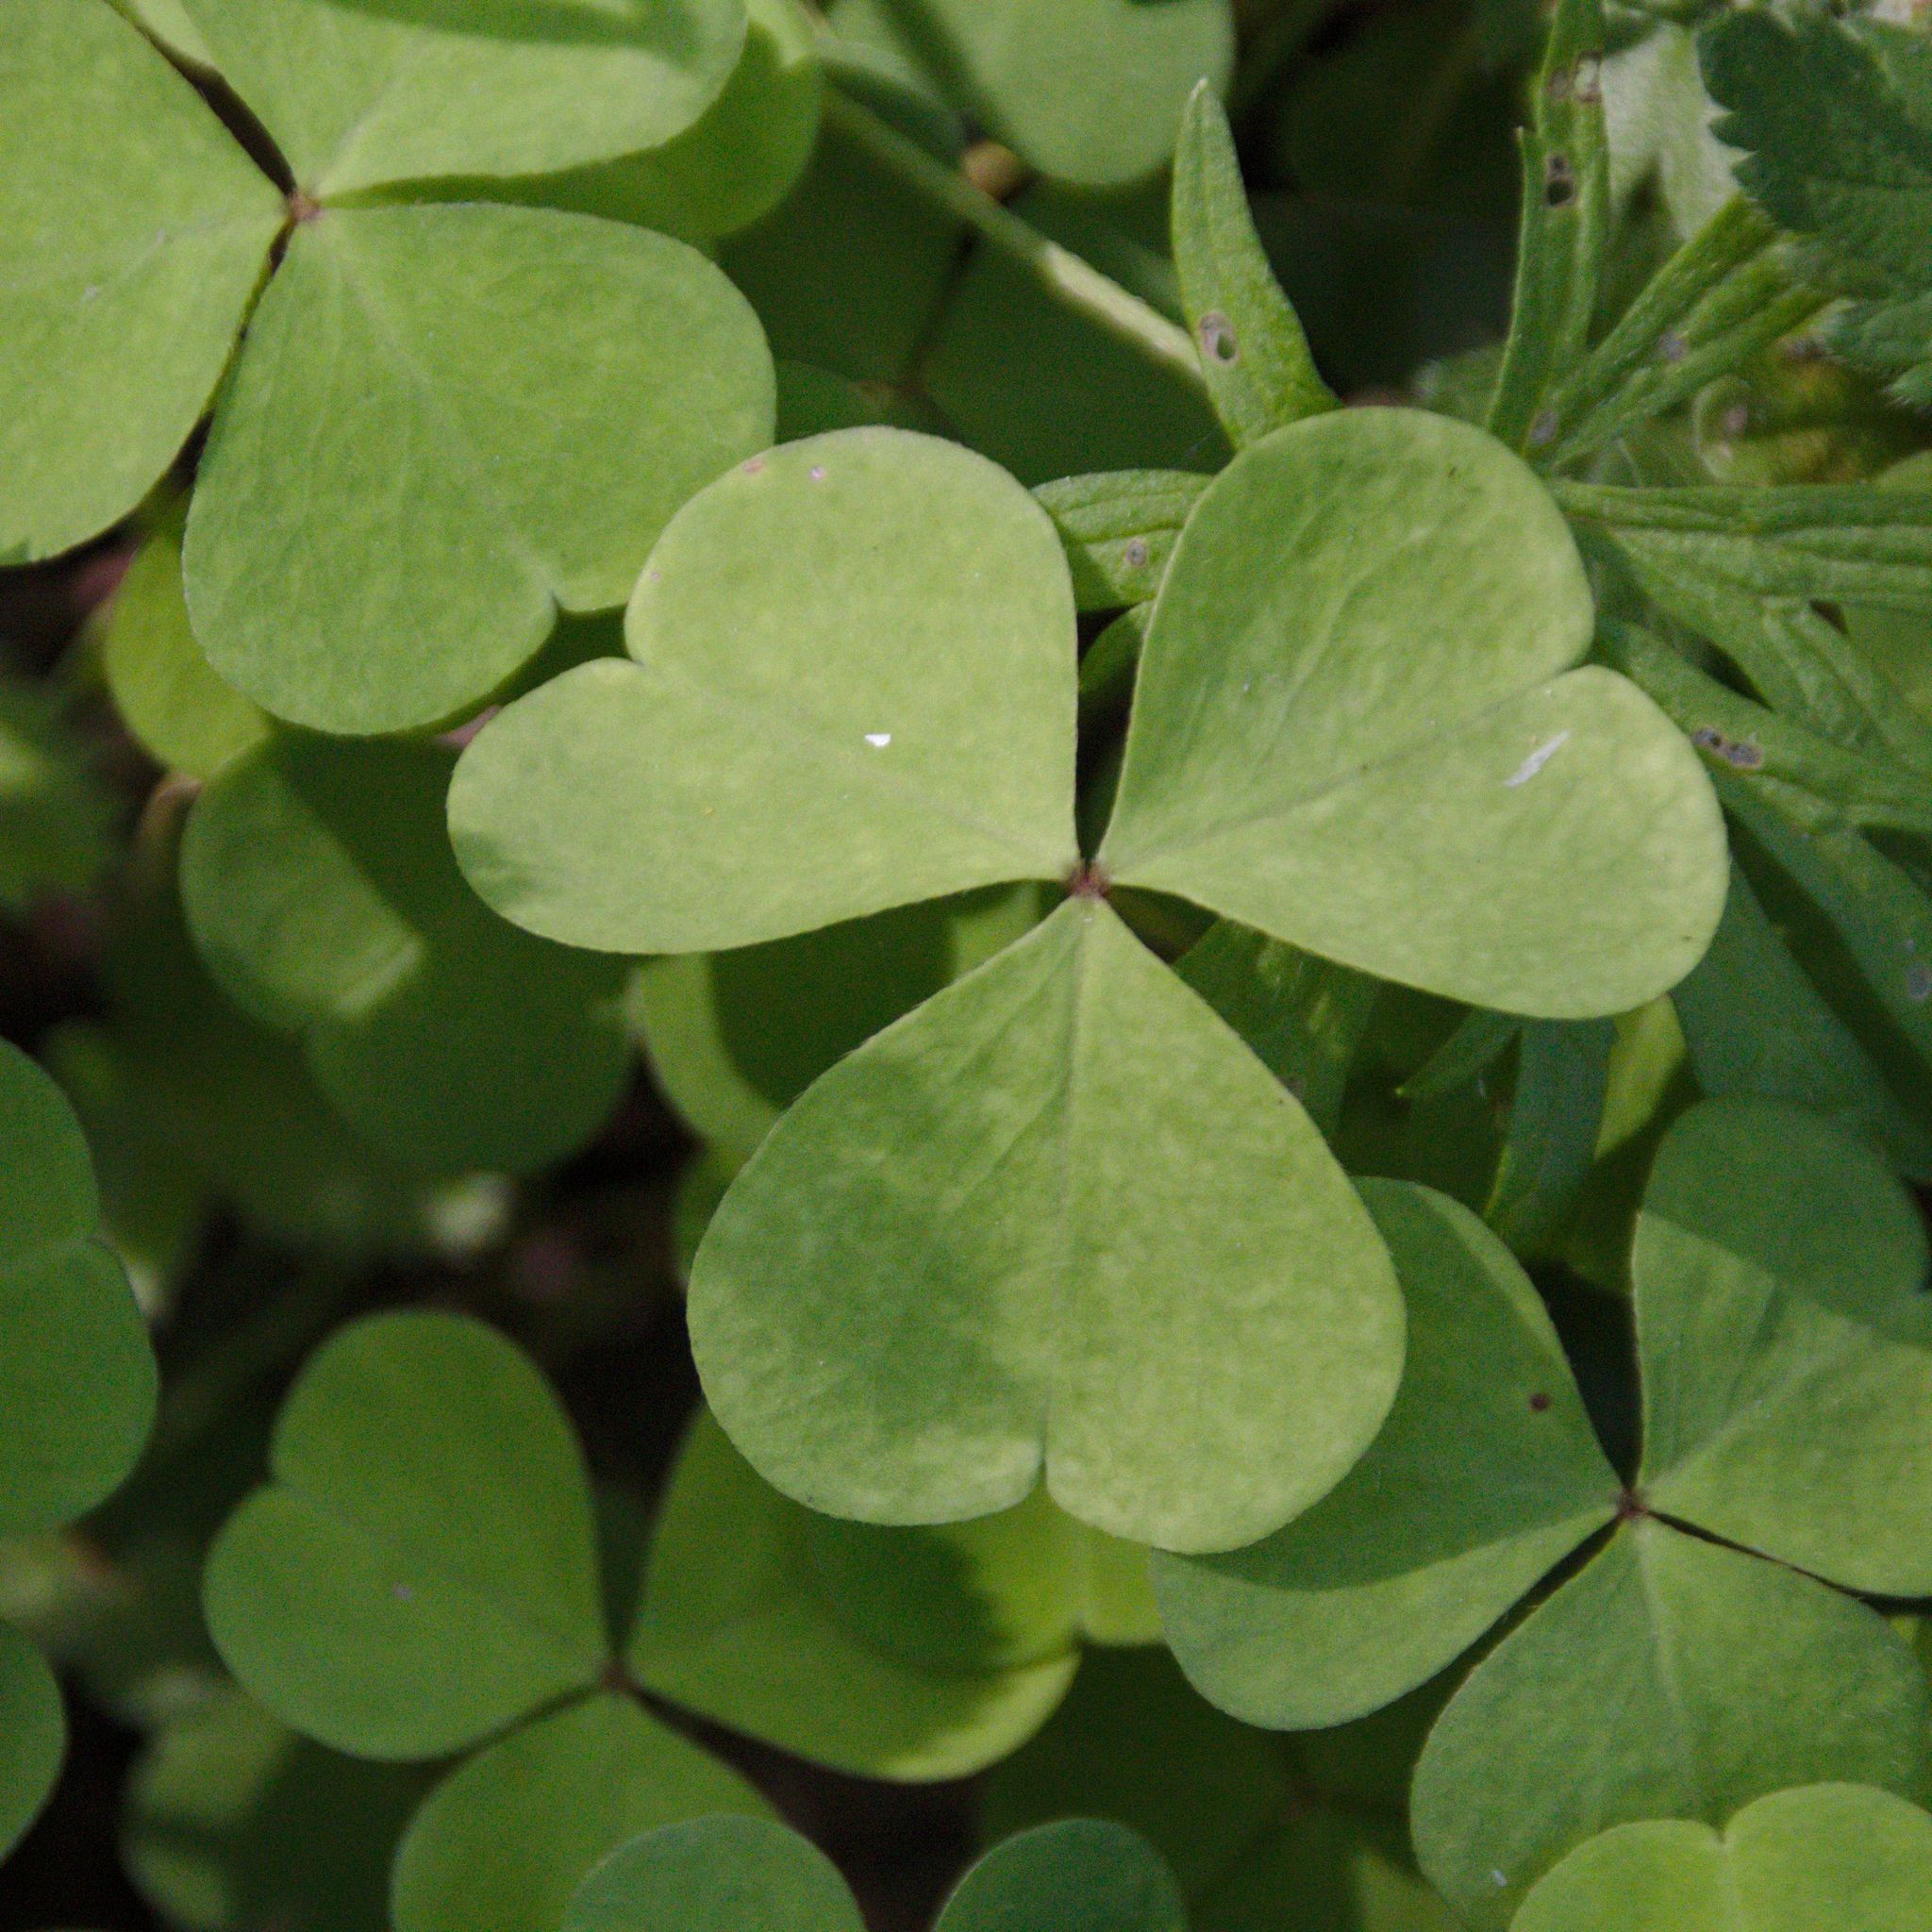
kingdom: Plantae
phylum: Tracheophyta
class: Magnoliopsida
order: Oxalidales
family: Oxalidaceae
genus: Oxalis
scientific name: Oxalis acetosella
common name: Wood-sorrel
